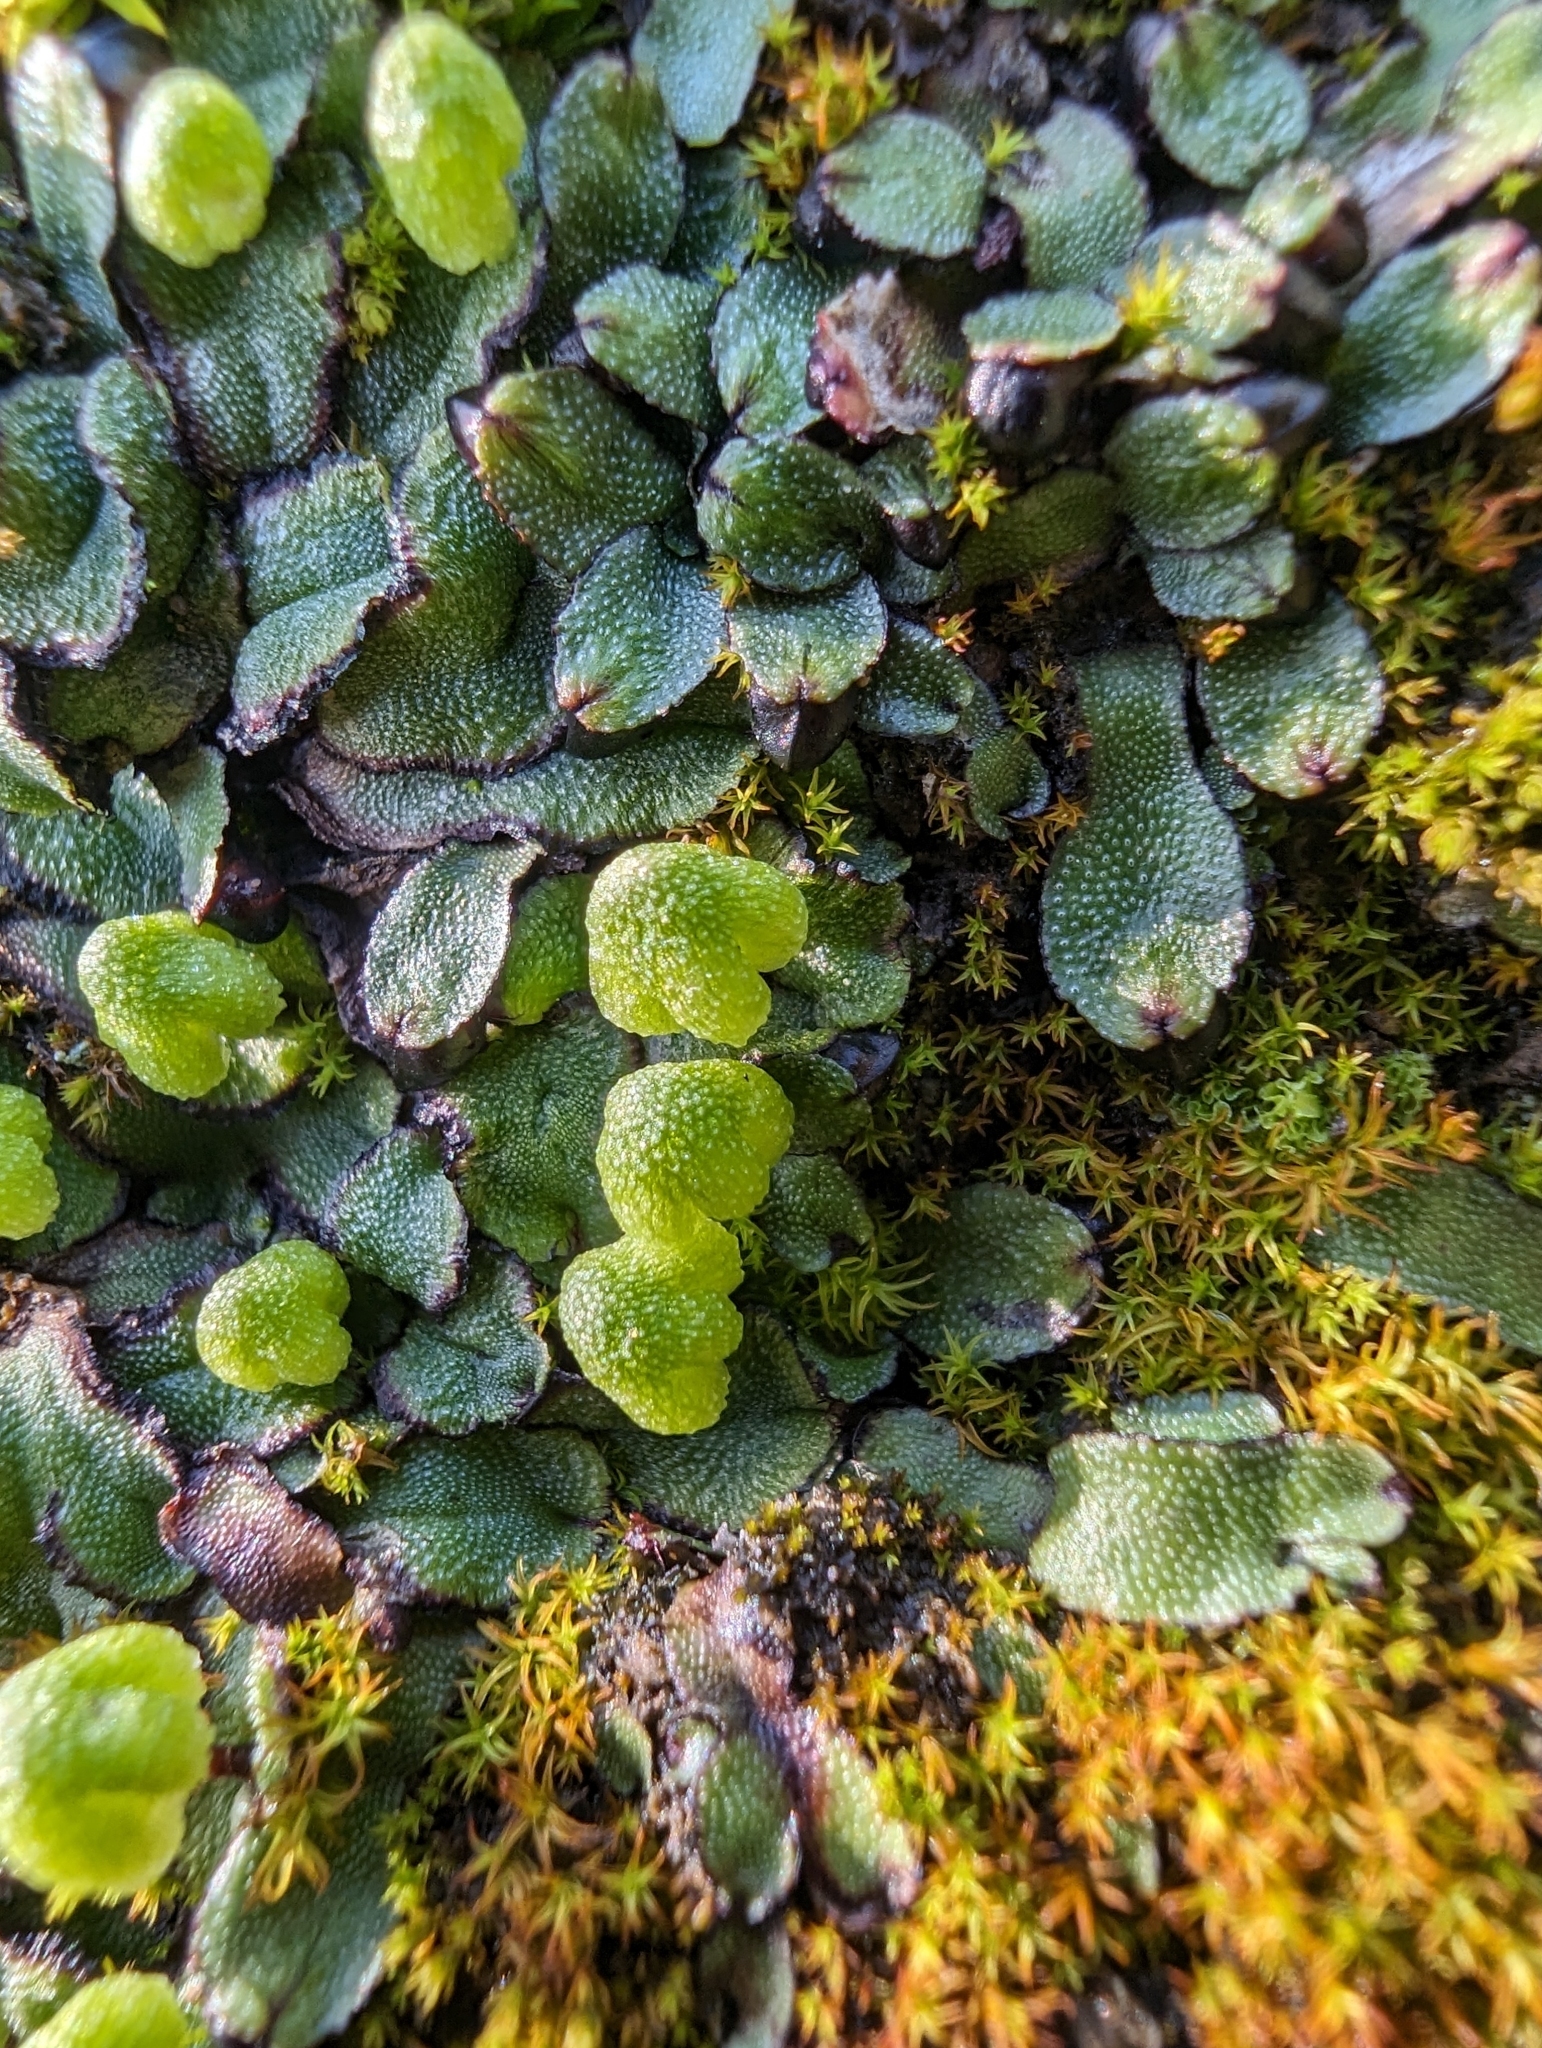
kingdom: Plantae
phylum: Marchantiophyta
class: Marchantiopsida
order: Marchantiales
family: Aytoniaceae
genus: Asterella
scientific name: Asterella californica
